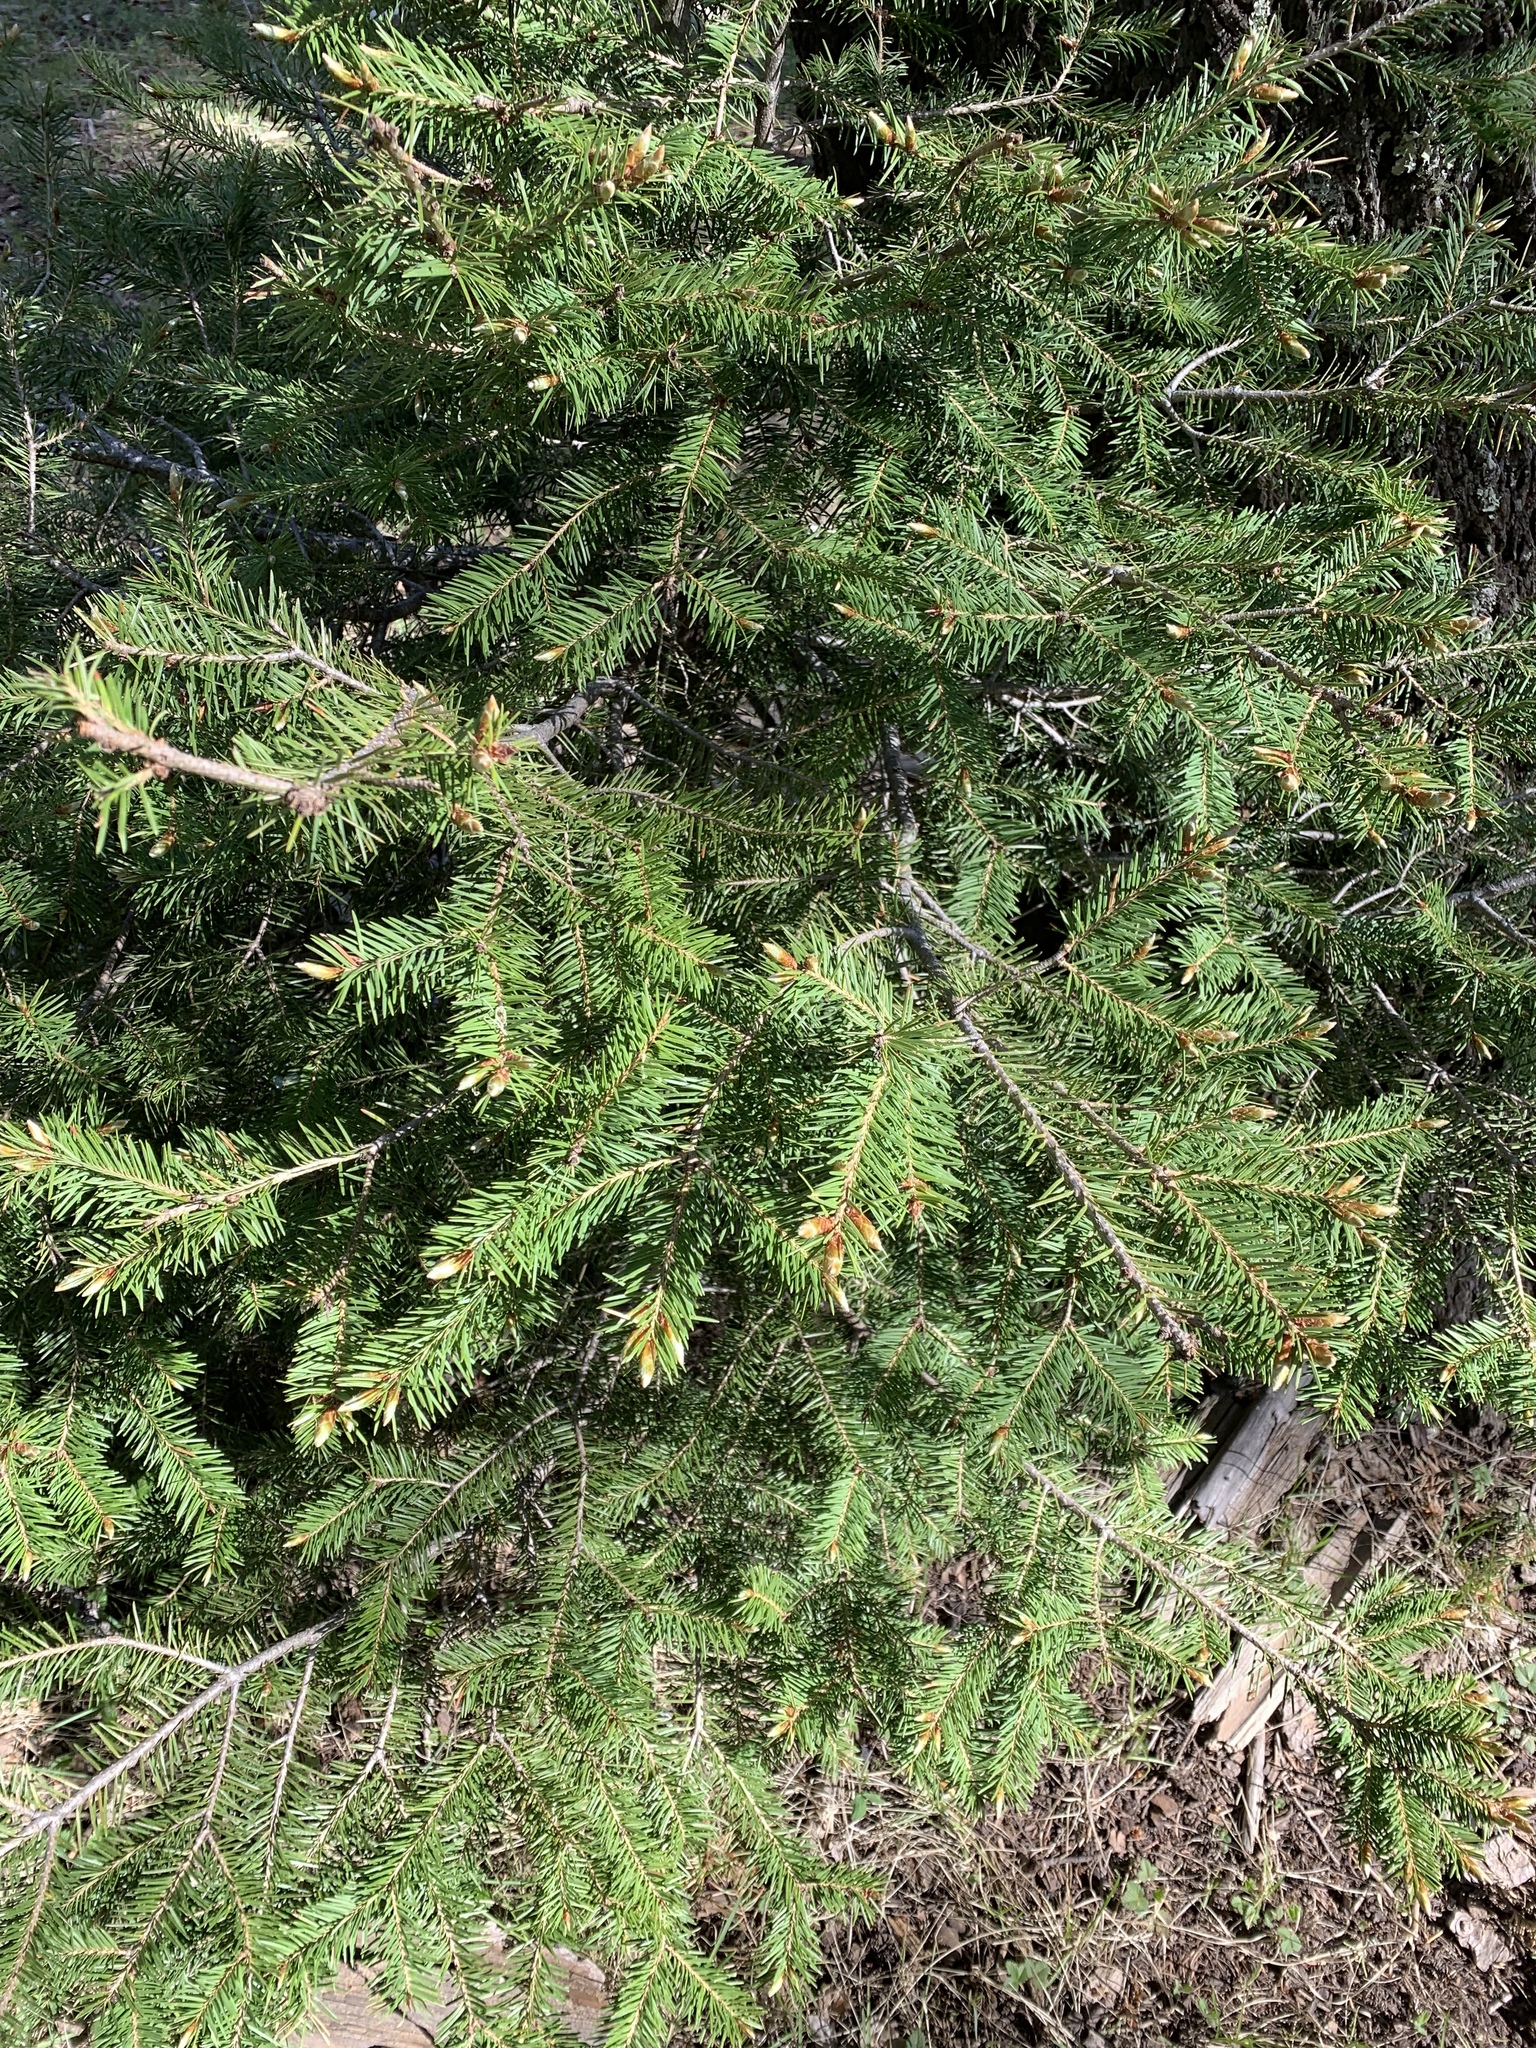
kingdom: Plantae
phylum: Tracheophyta
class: Pinopsida
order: Pinales
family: Pinaceae
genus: Pseudotsuga
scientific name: Pseudotsuga menziesii
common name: Douglas fir
